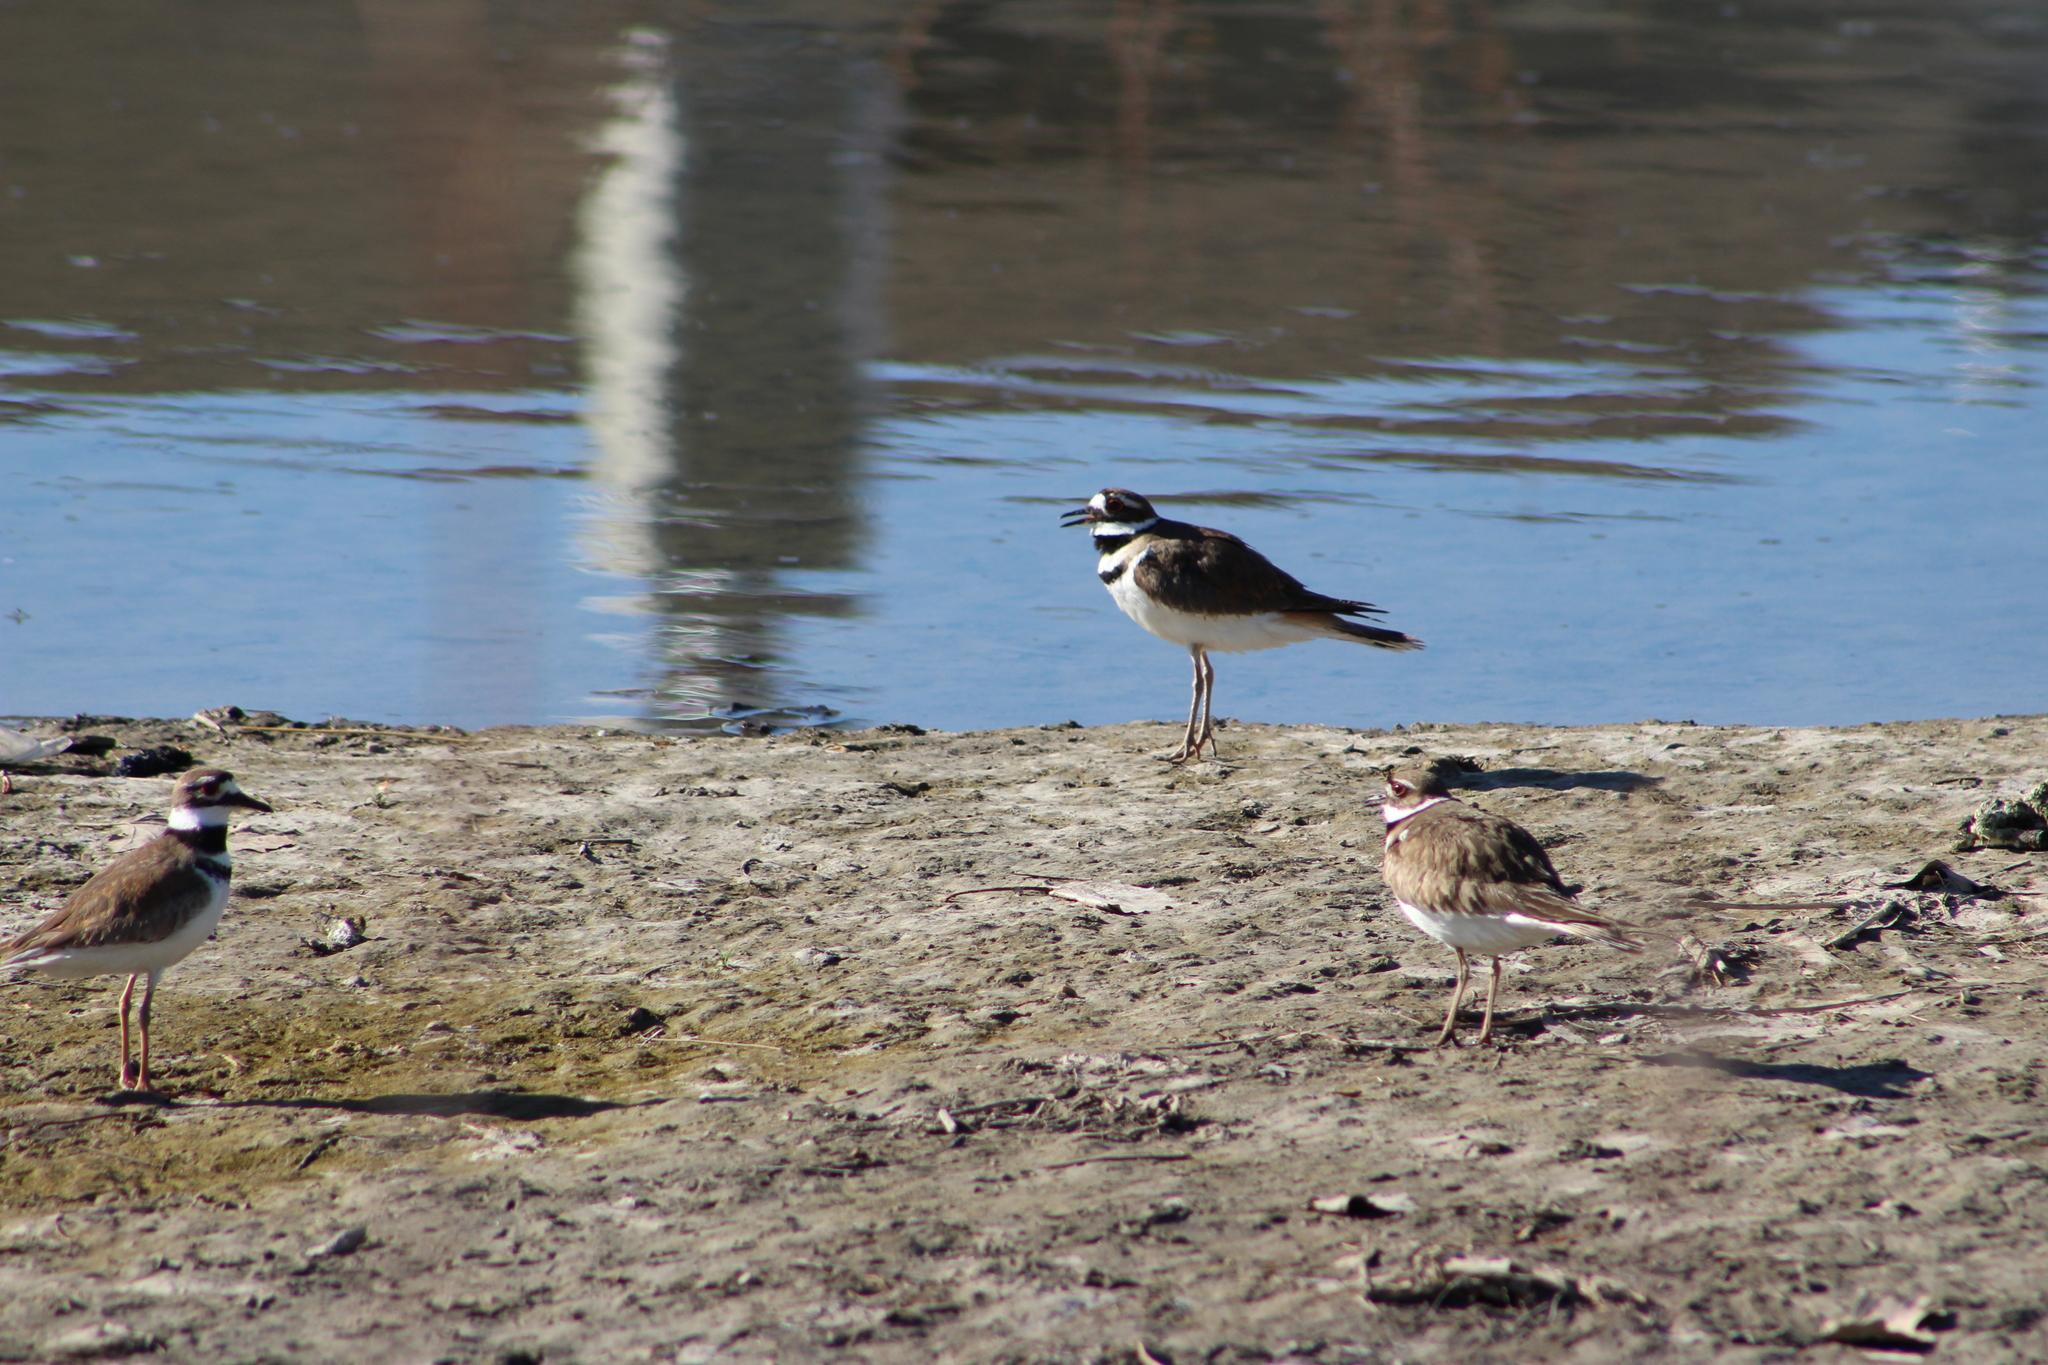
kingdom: Animalia
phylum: Chordata
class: Aves
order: Charadriiformes
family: Charadriidae
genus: Charadrius
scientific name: Charadrius vociferus
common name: Killdeer
